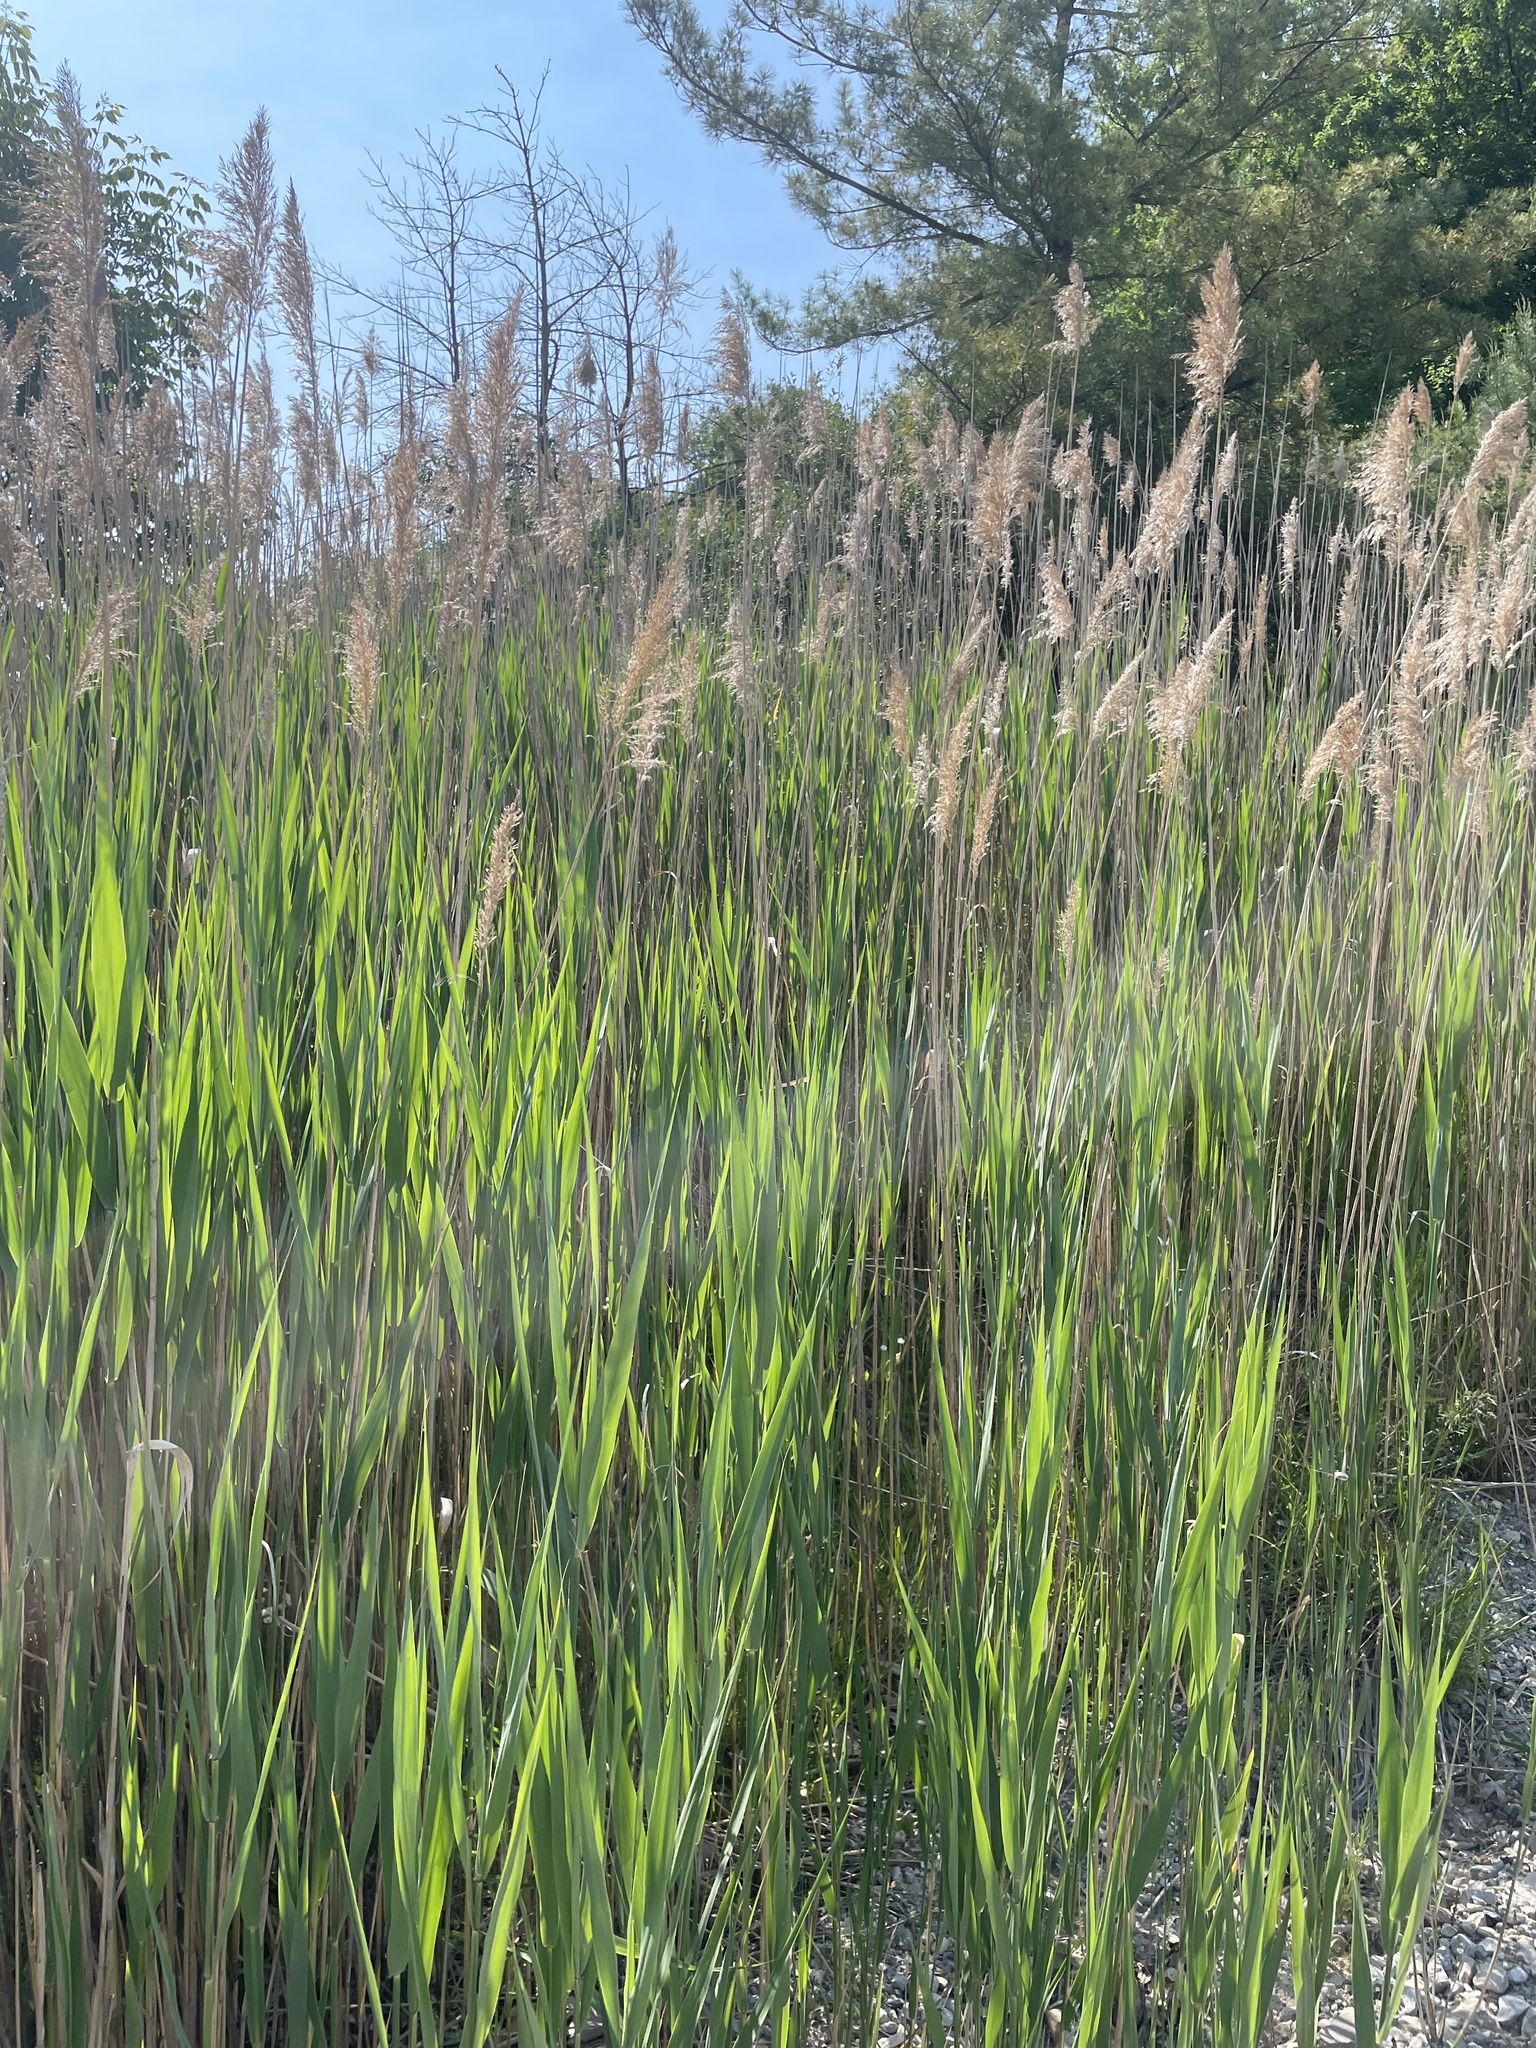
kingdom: Plantae
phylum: Tracheophyta
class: Liliopsida
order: Poales
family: Poaceae
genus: Phragmites
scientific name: Phragmites australis
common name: Common reed
